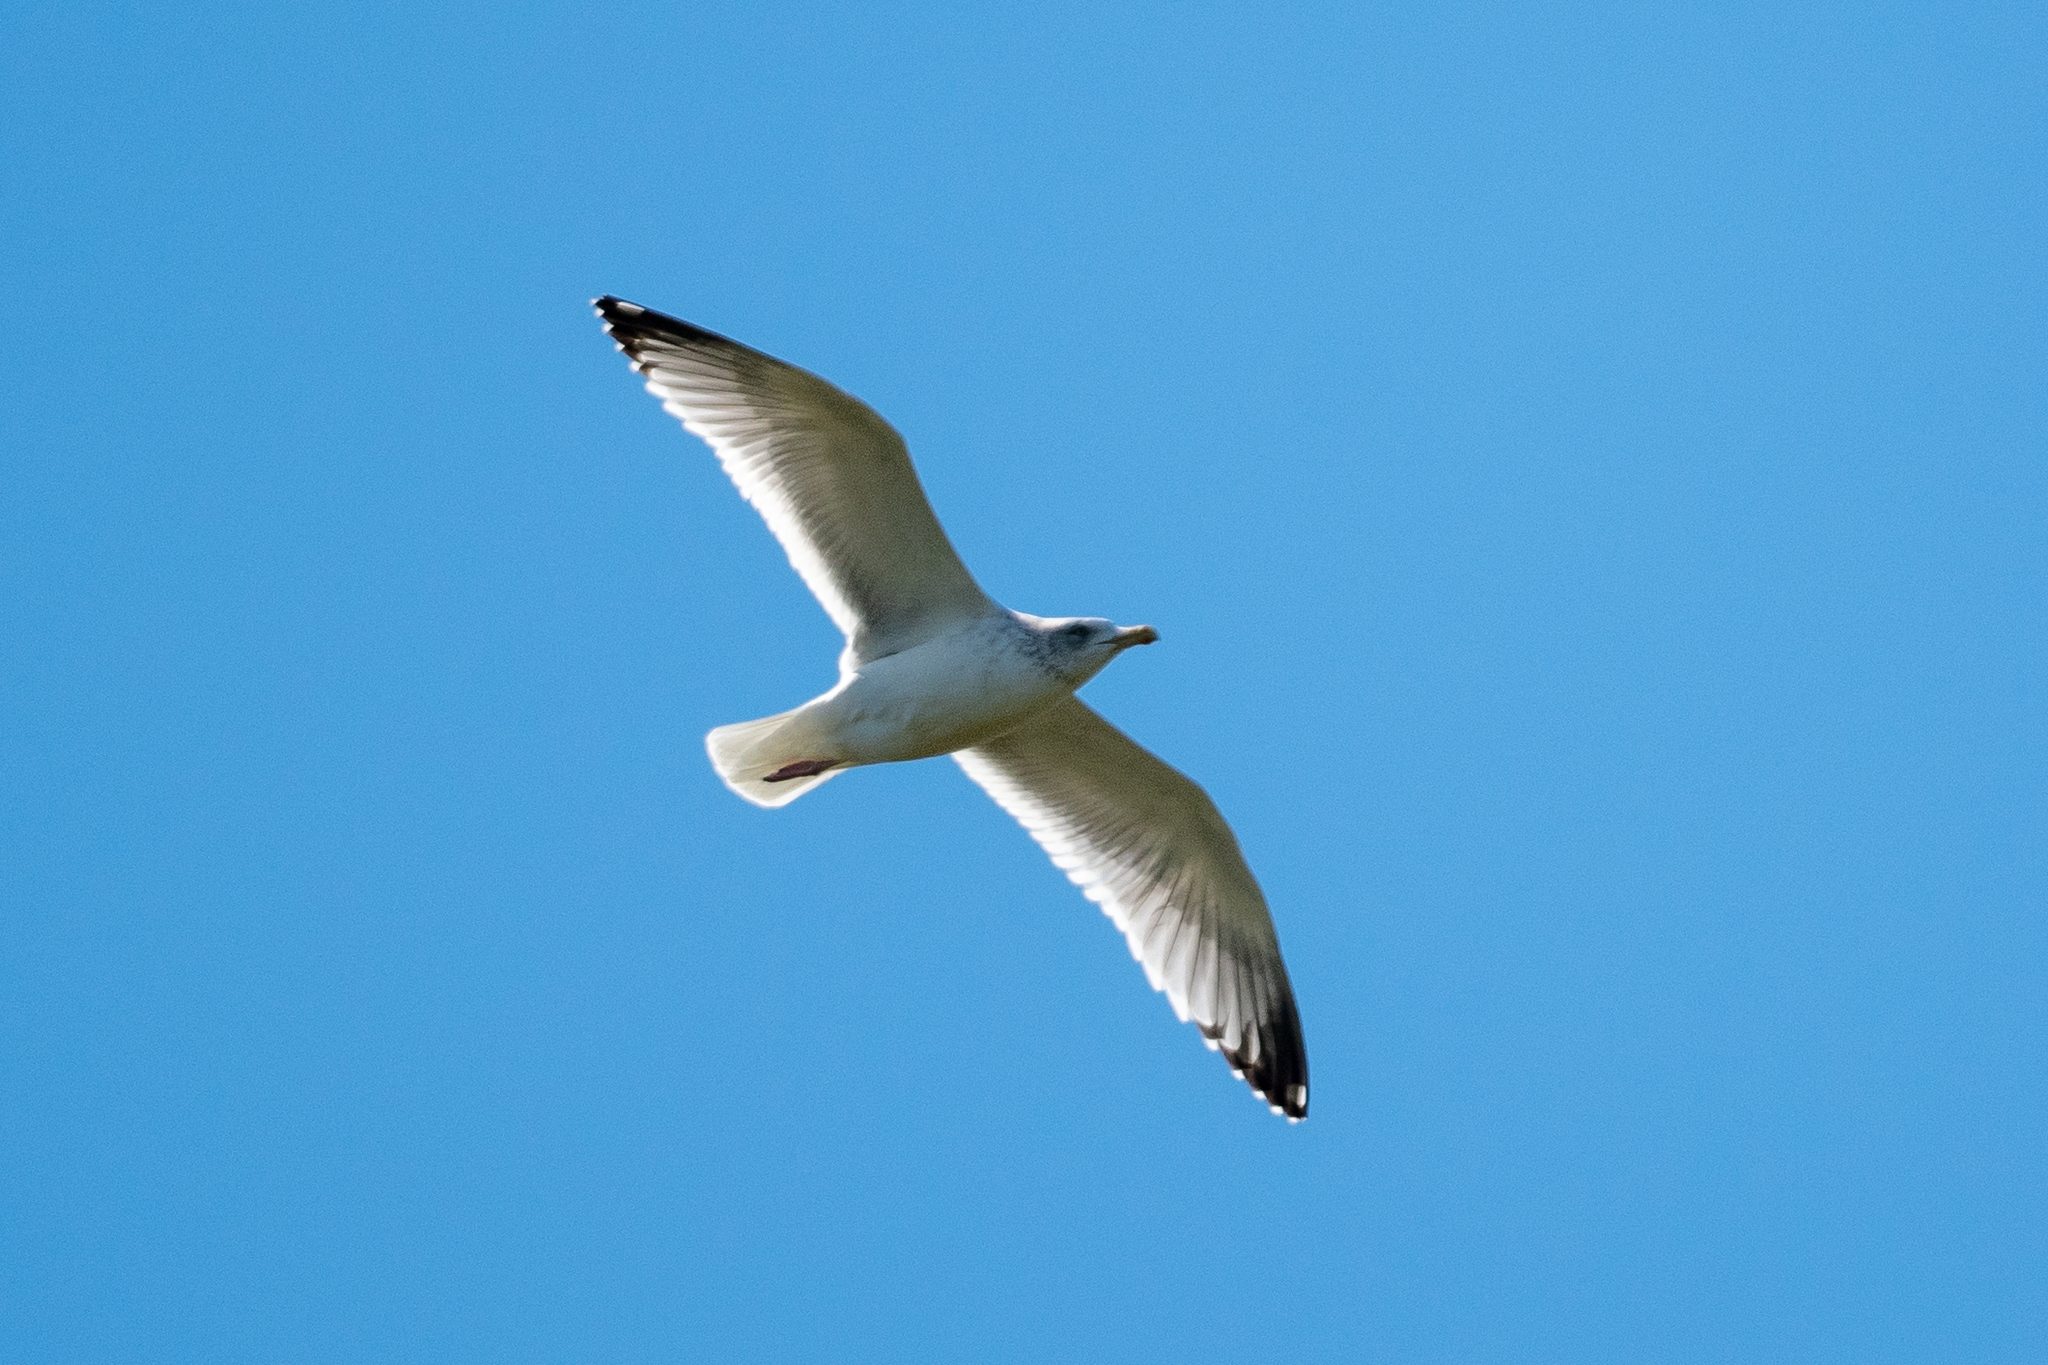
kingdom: Animalia
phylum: Chordata
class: Aves
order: Charadriiformes
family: Laridae
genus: Larus
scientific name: Larus argentatus
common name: Herring gull
